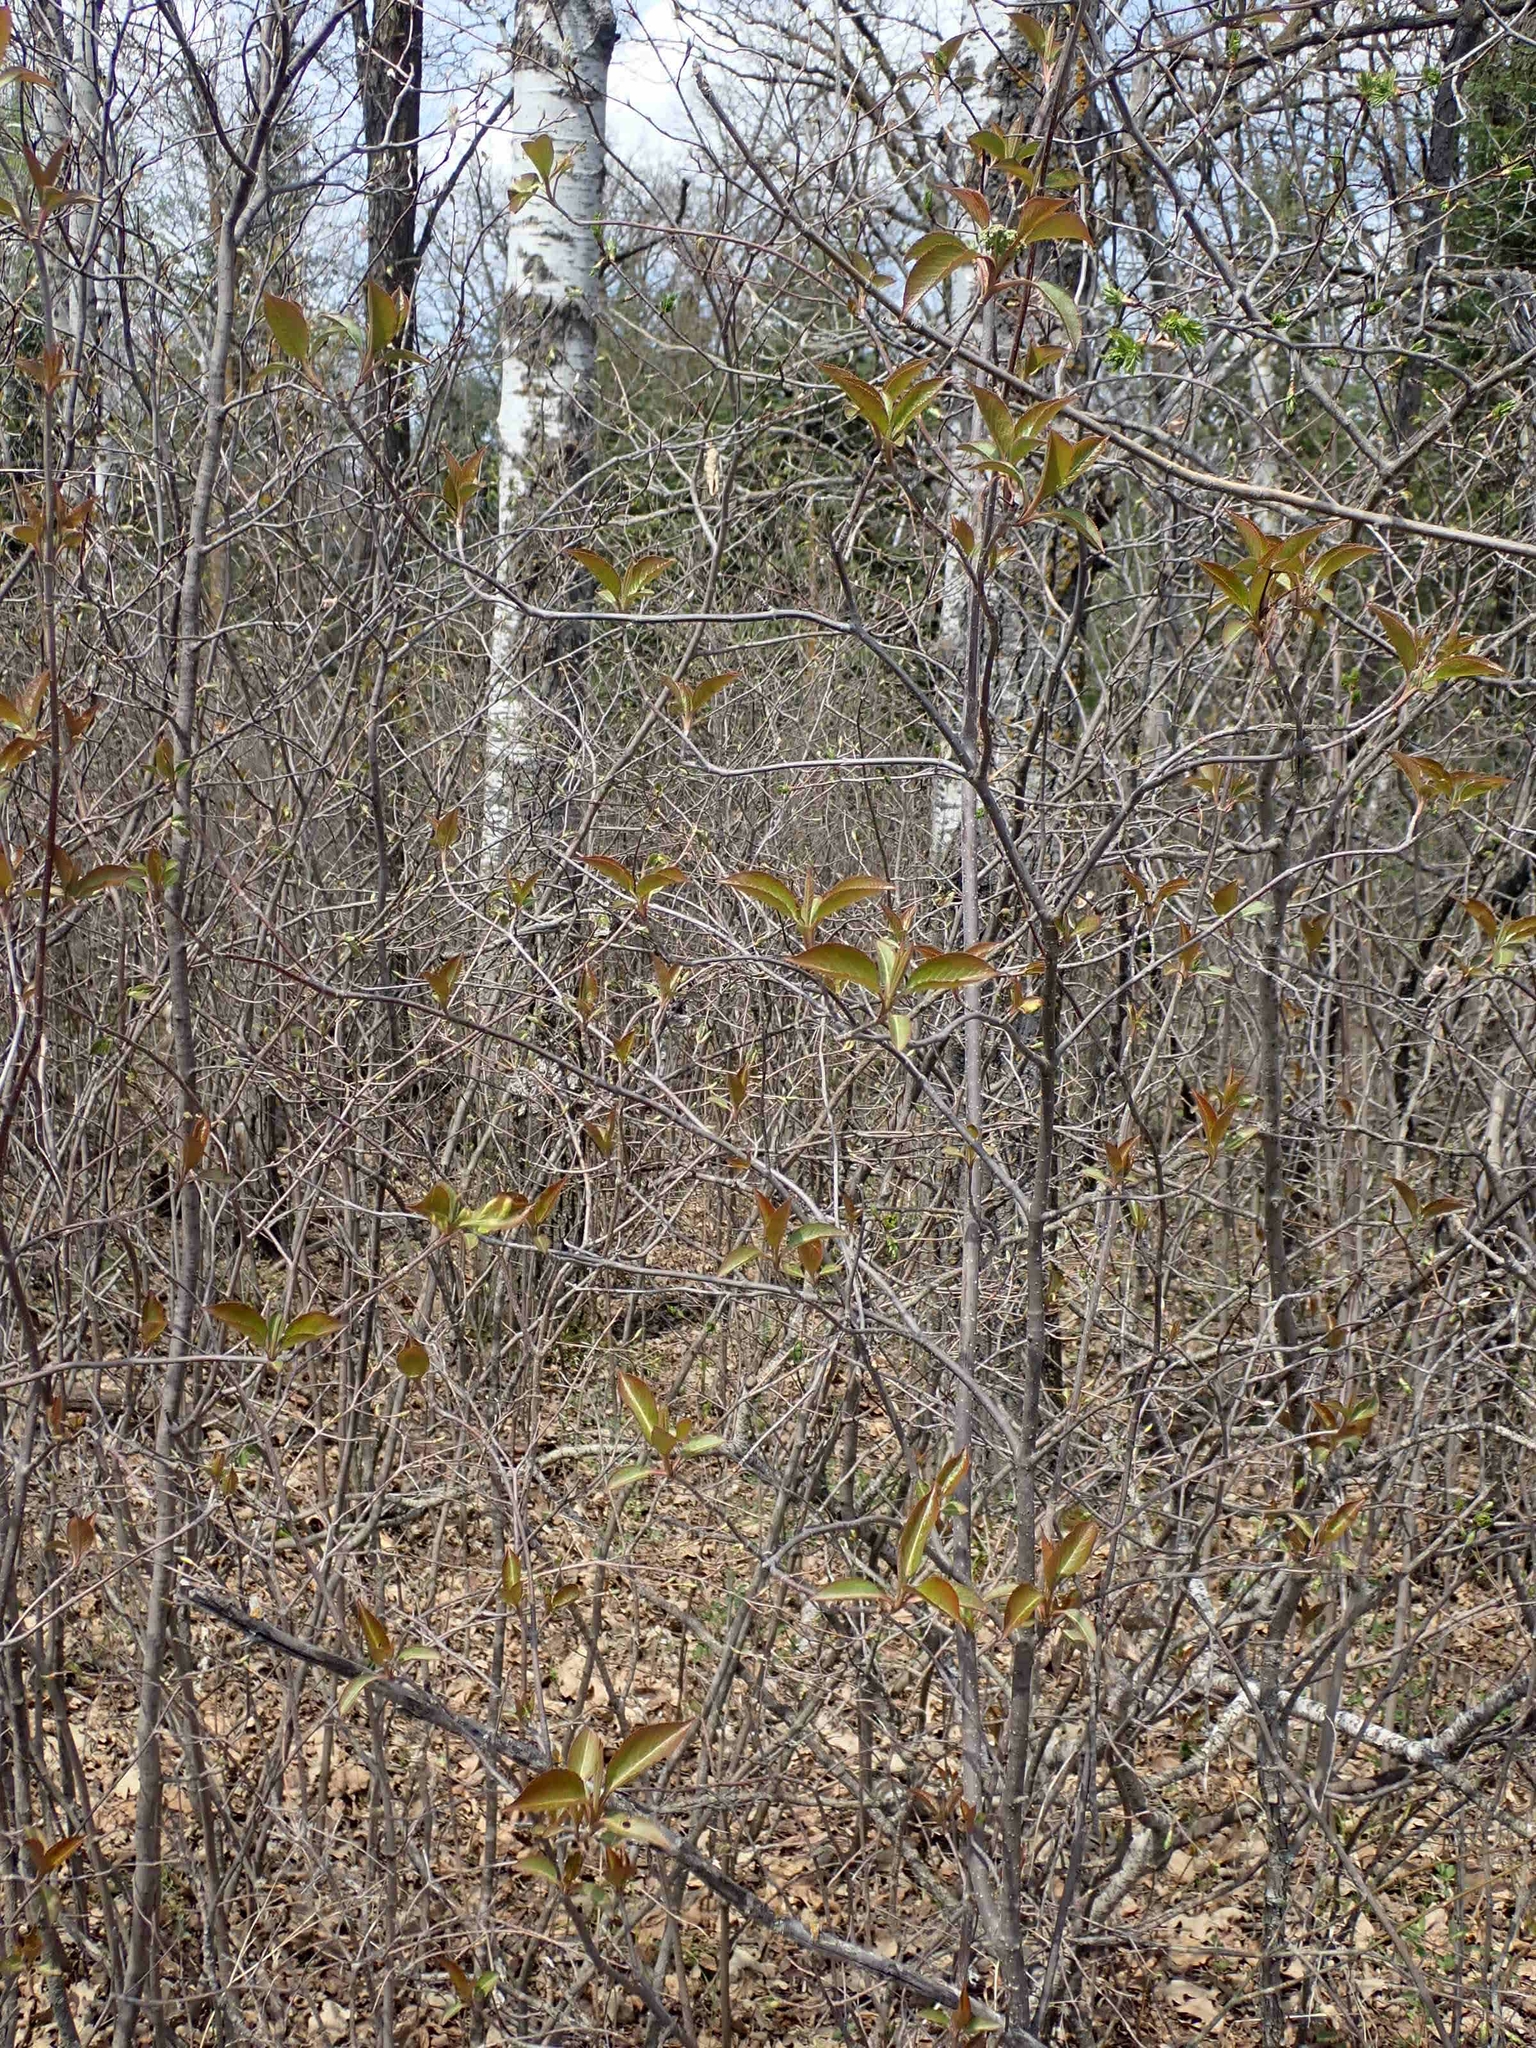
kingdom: Plantae
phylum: Tracheophyta
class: Magnoliopsida
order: Dipsacales
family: Viburnaceae
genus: Viburnum
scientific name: Viburnum lentago
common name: Black haw
